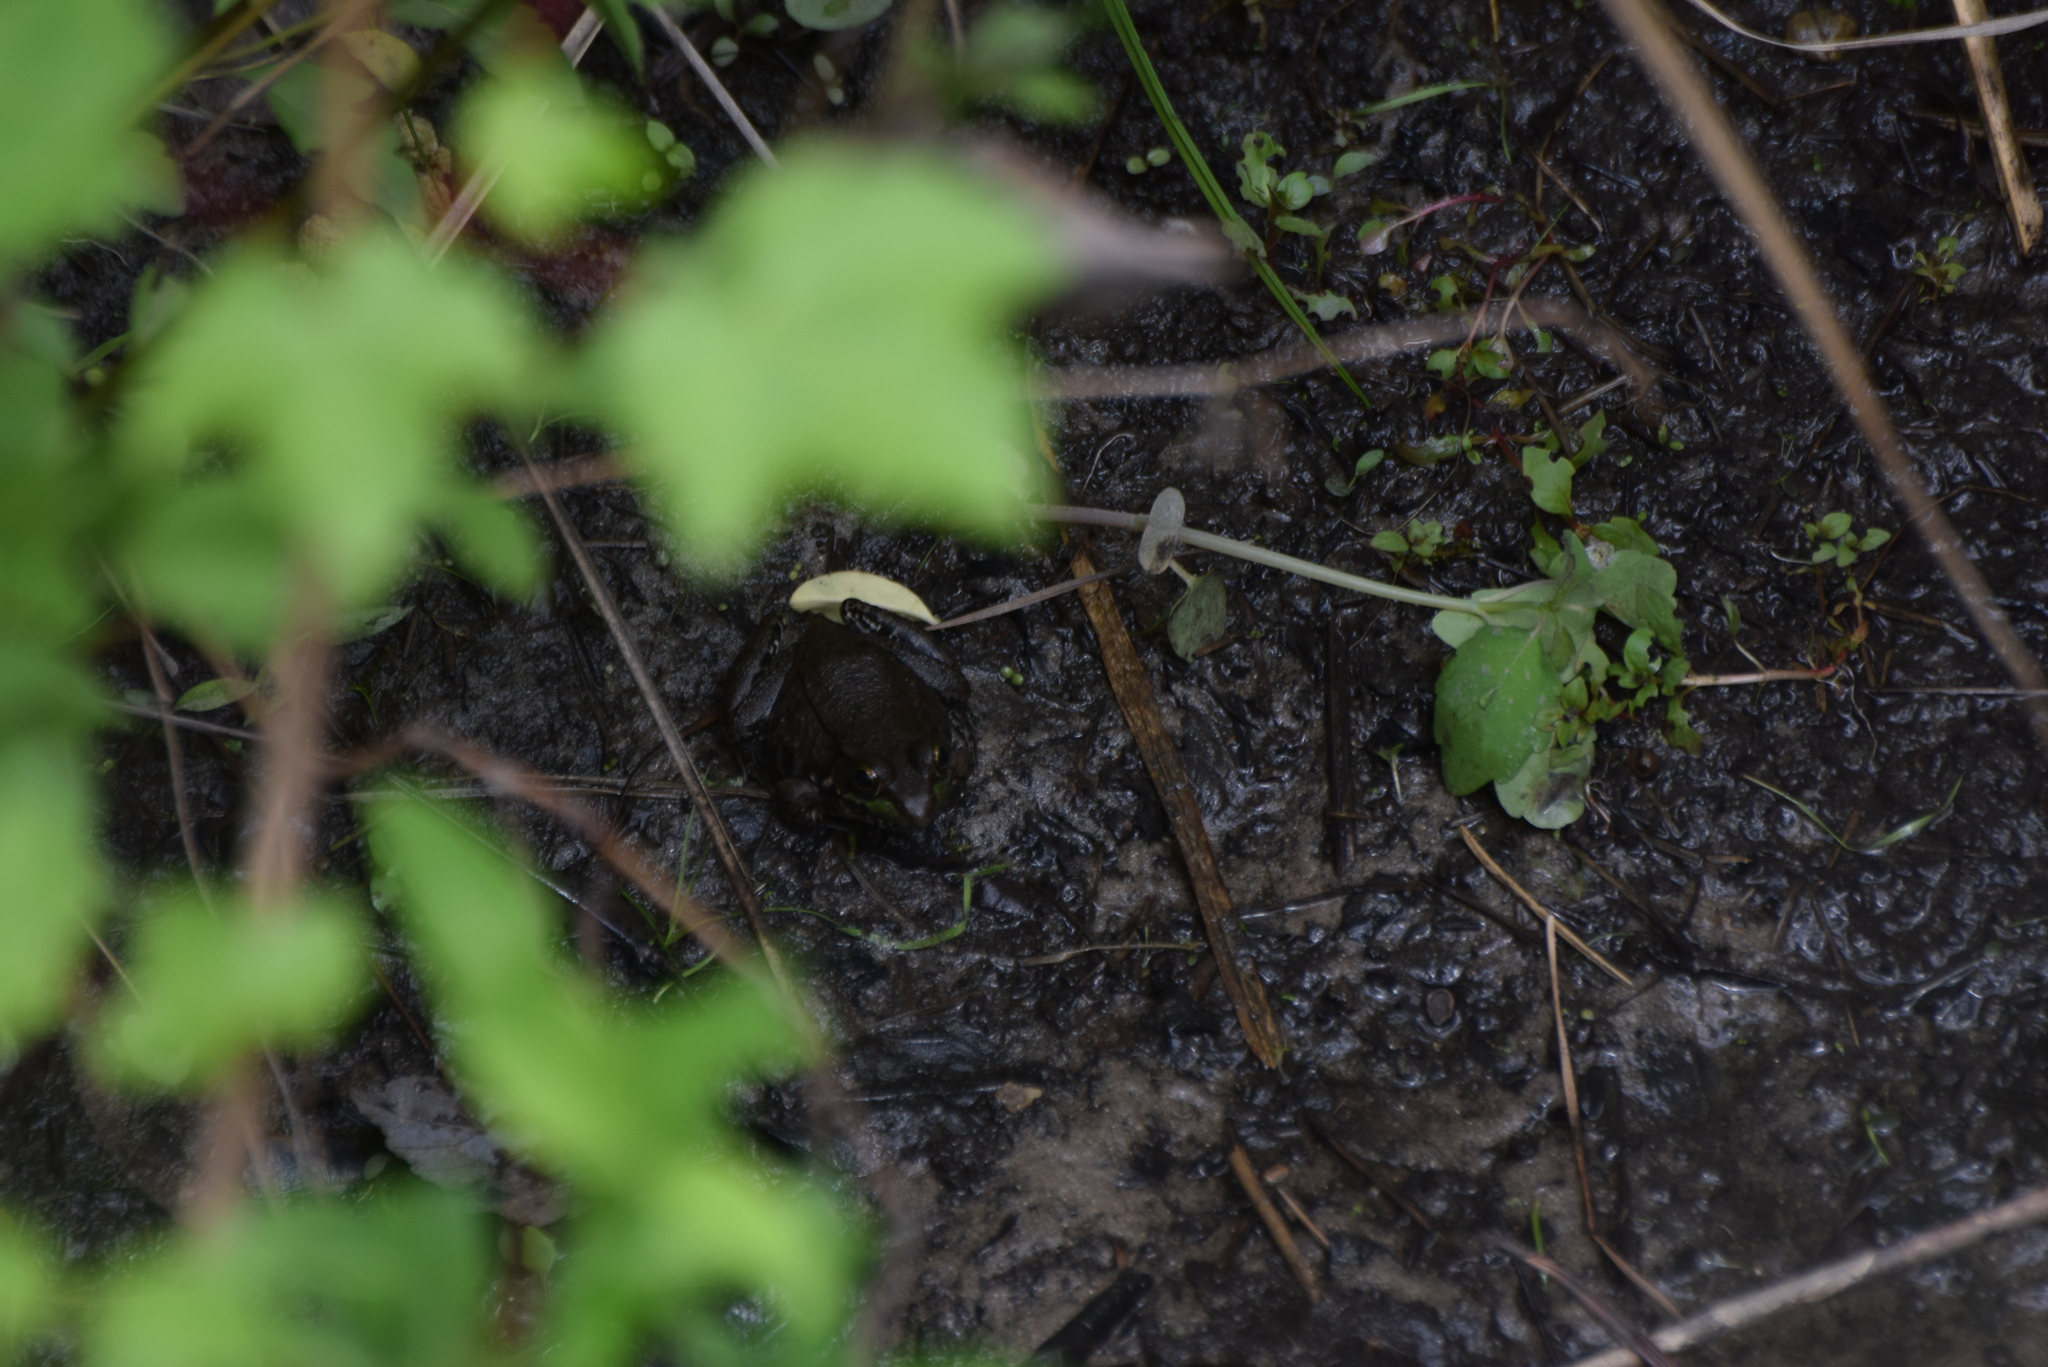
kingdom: Animalia
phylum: Chordata
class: Amphibia
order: Anura
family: Ranidae
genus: Lithobates
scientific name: Lithobates clamitans
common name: Green frog
